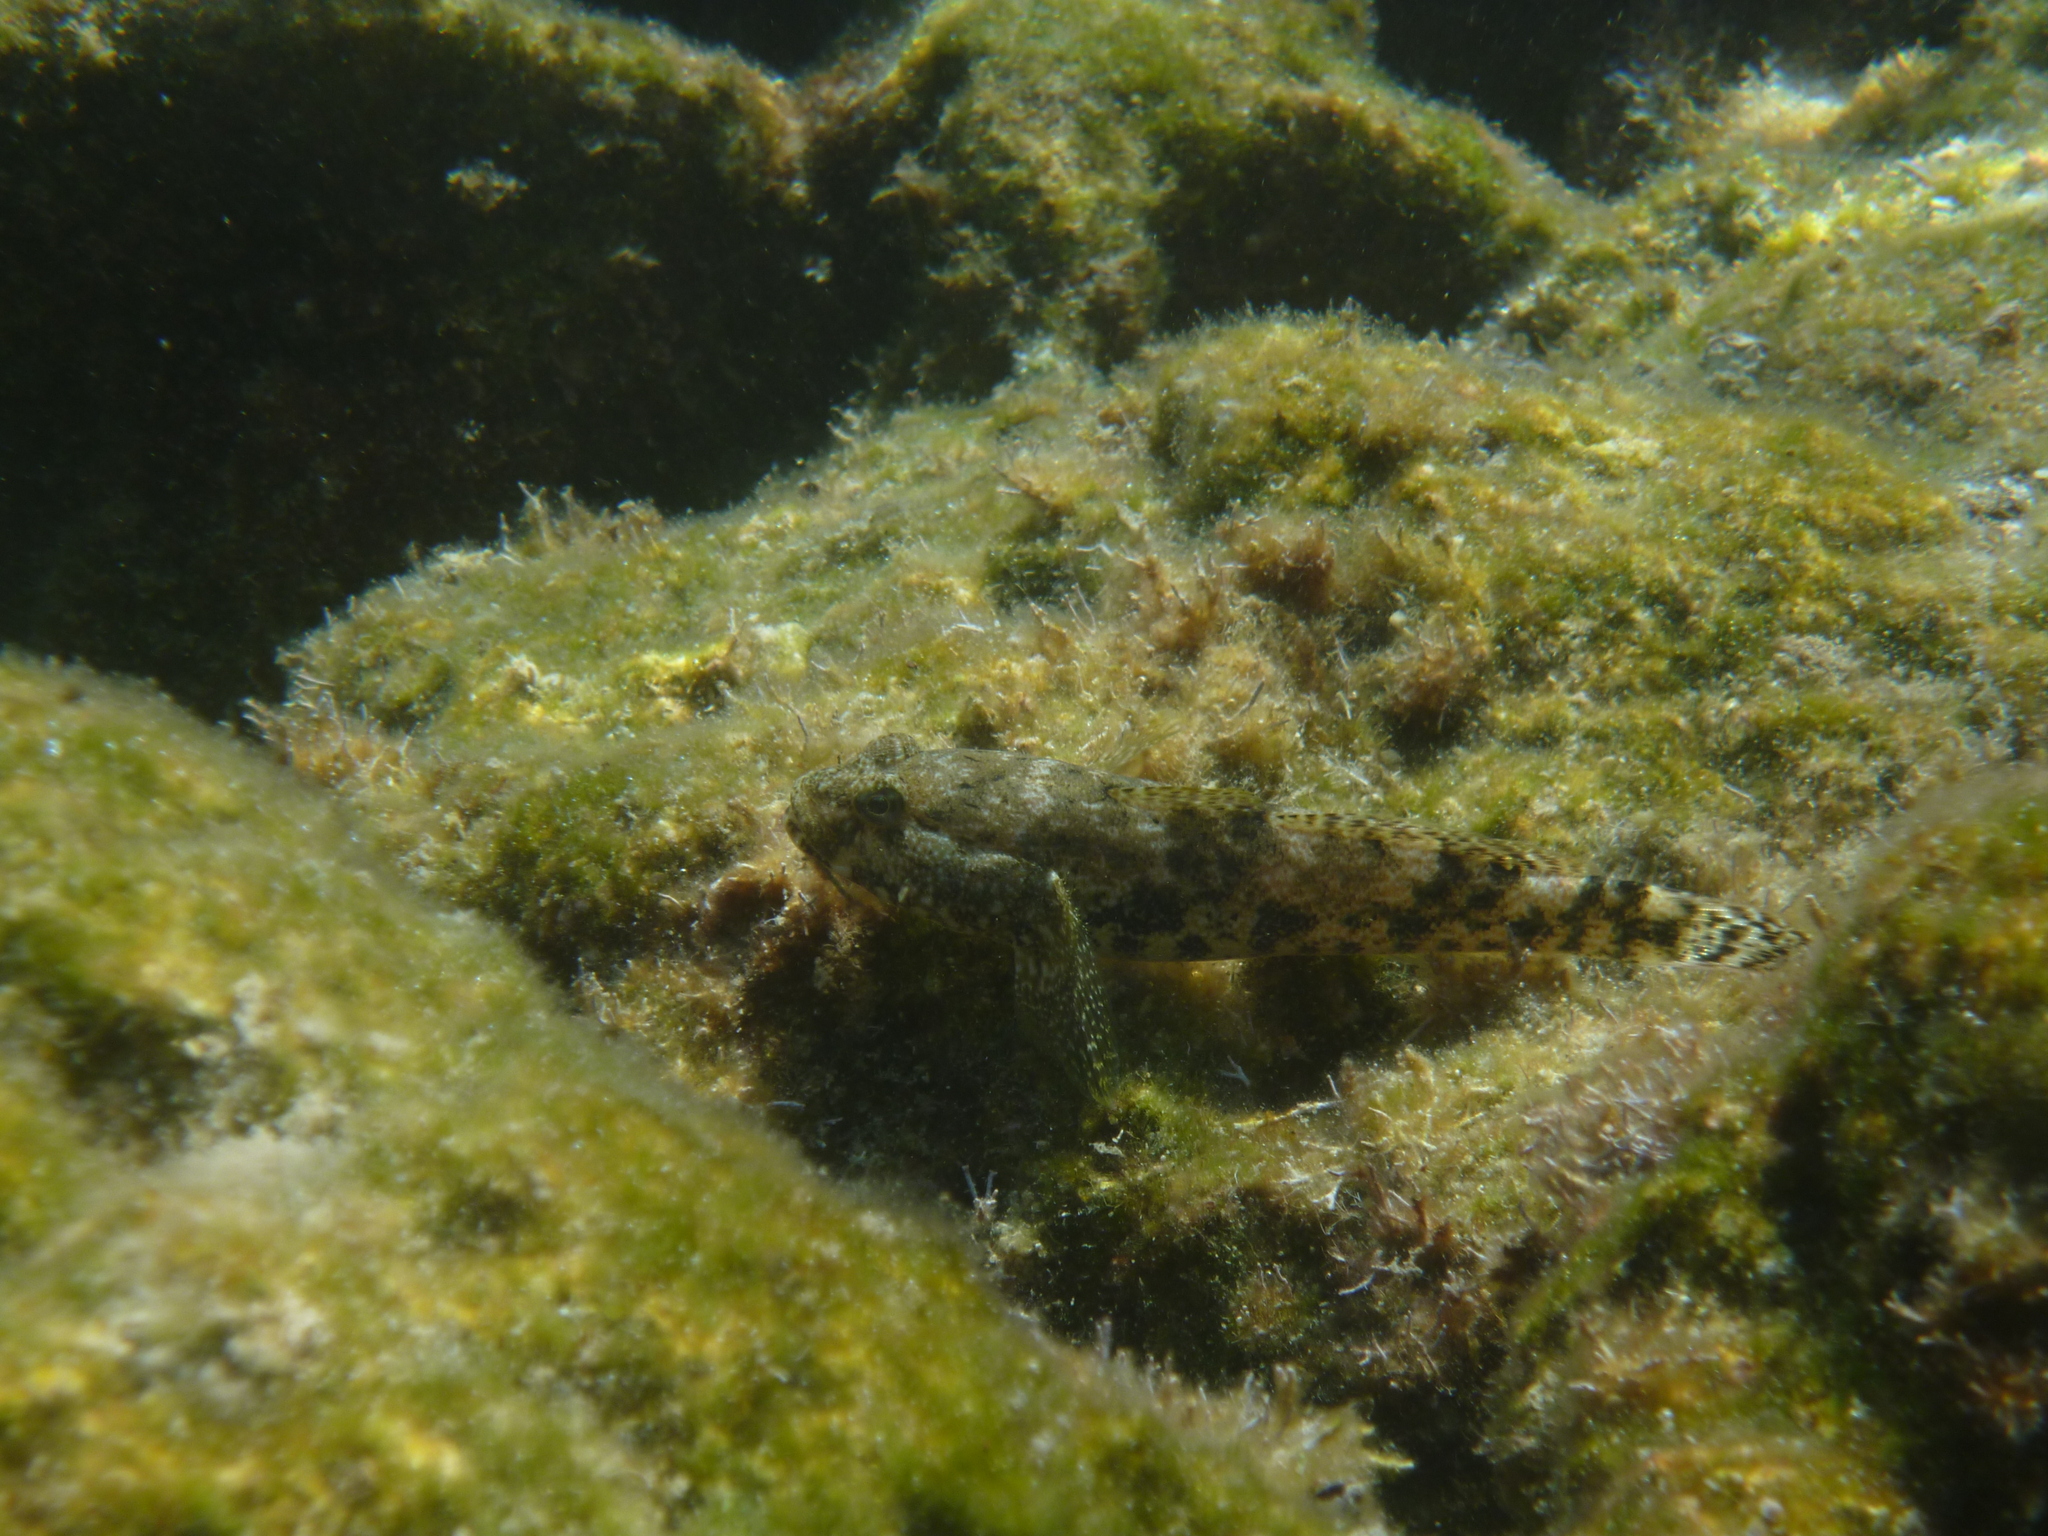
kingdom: Animalia
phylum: Chordata
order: Perciformes
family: Gobiidae
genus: Gobius
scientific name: Gobius cobitis
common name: Giant goby
